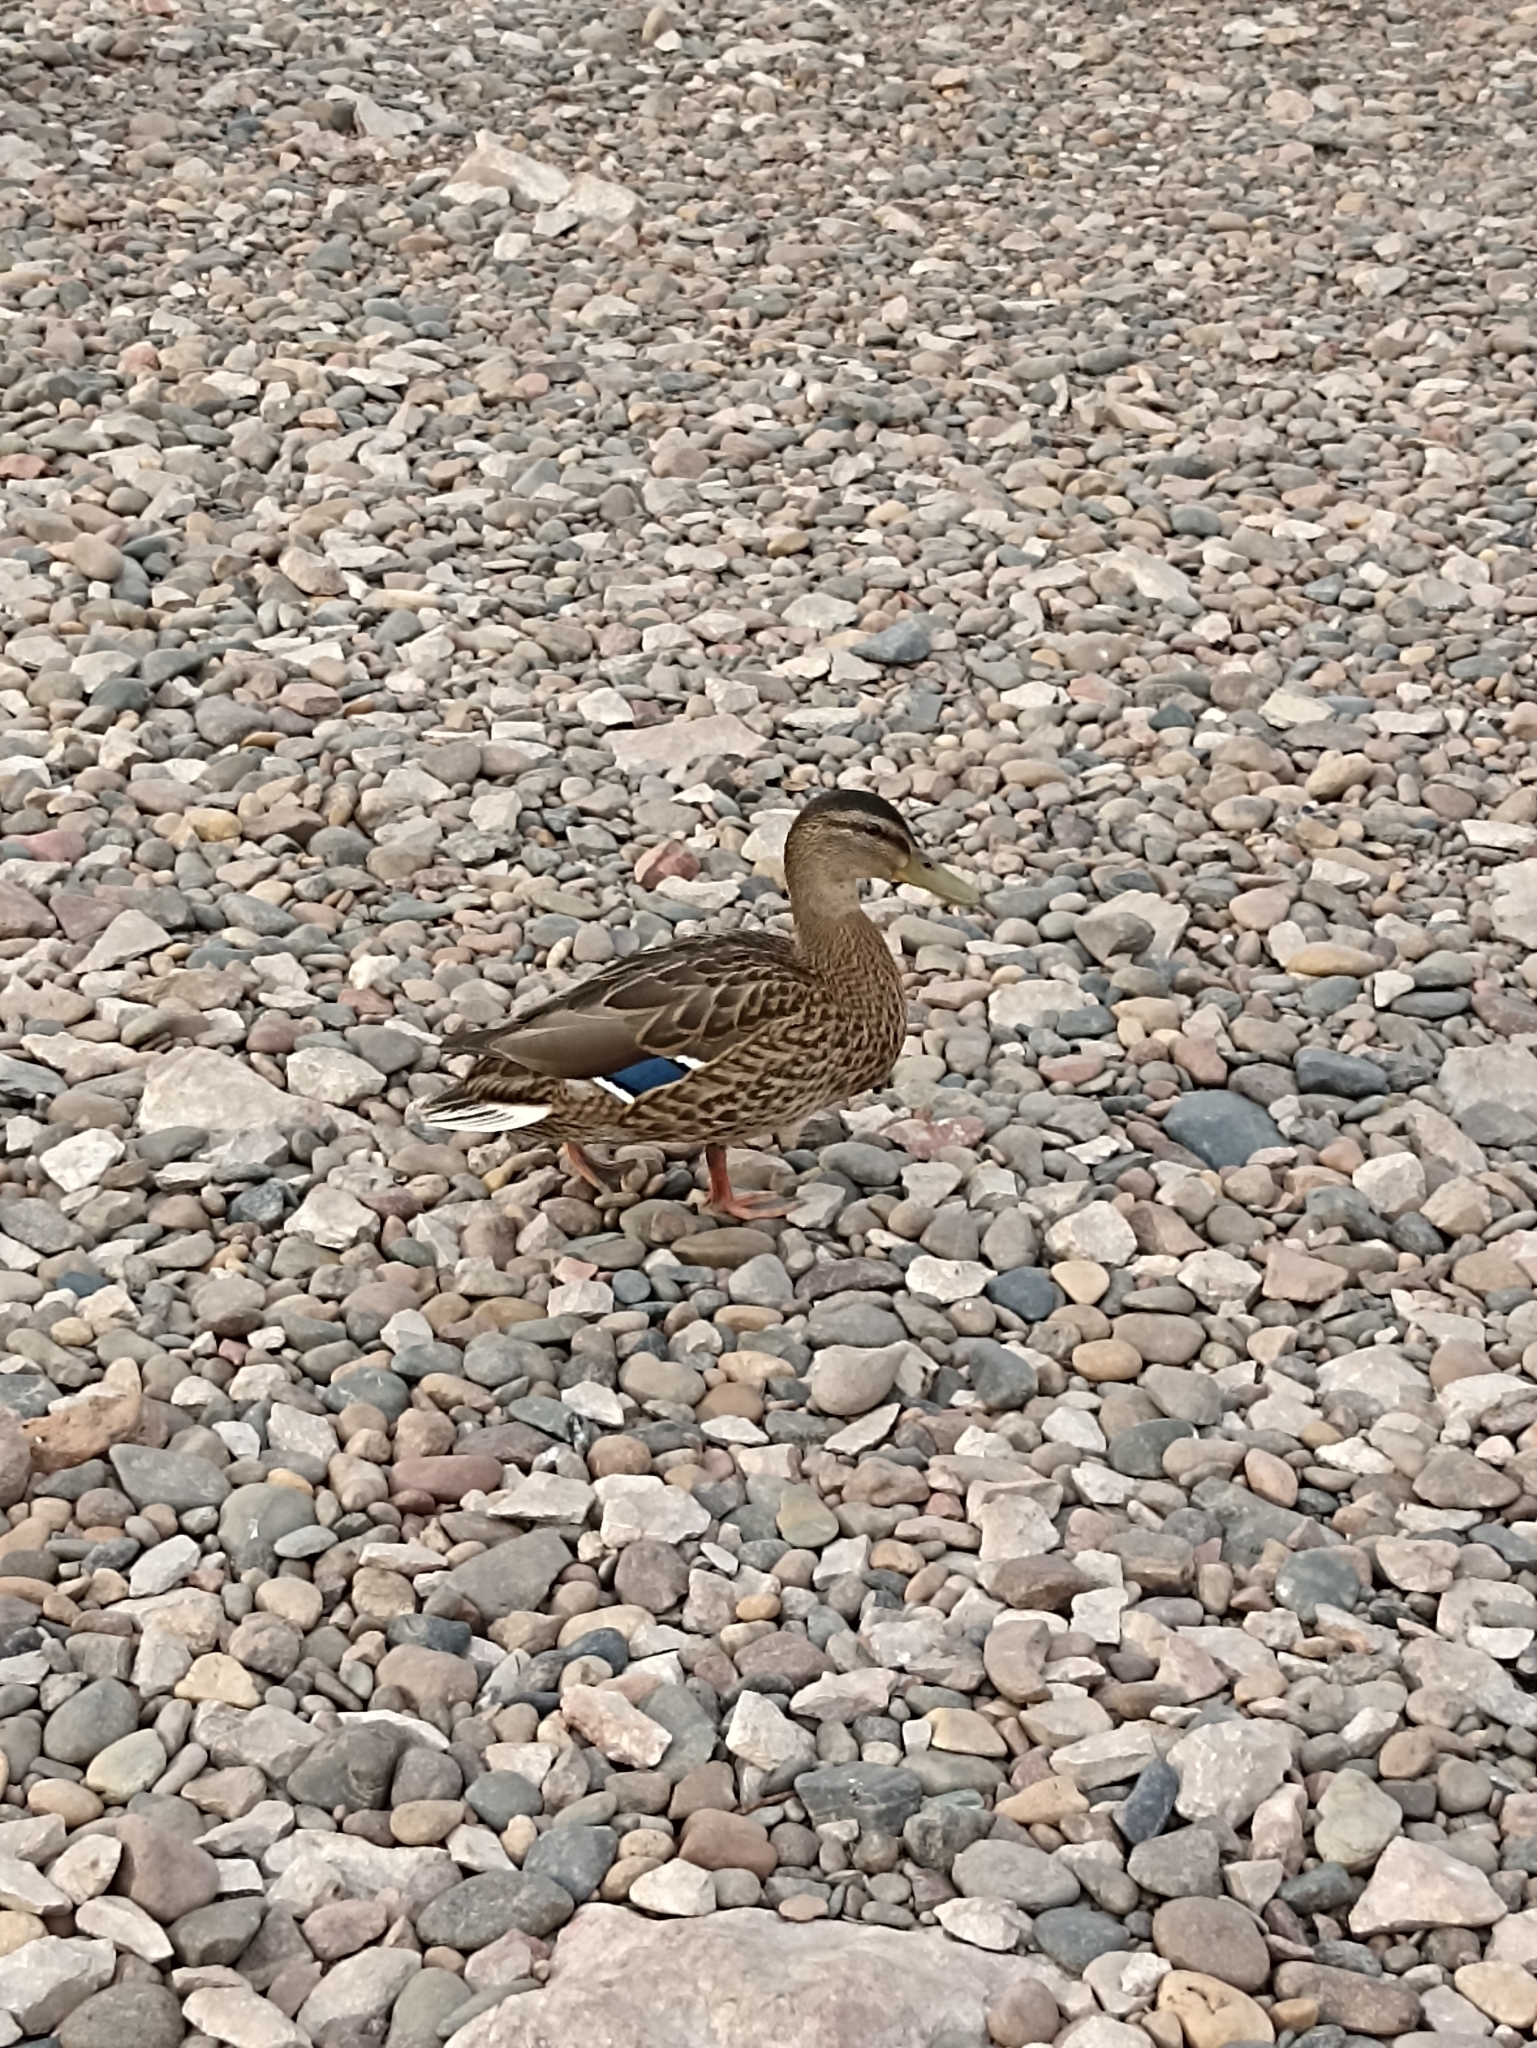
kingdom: Animalia
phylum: Chordata
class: Aves
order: Anseriformes
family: Anatidae
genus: Anas
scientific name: Anas platyrhynchos
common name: Mallard
